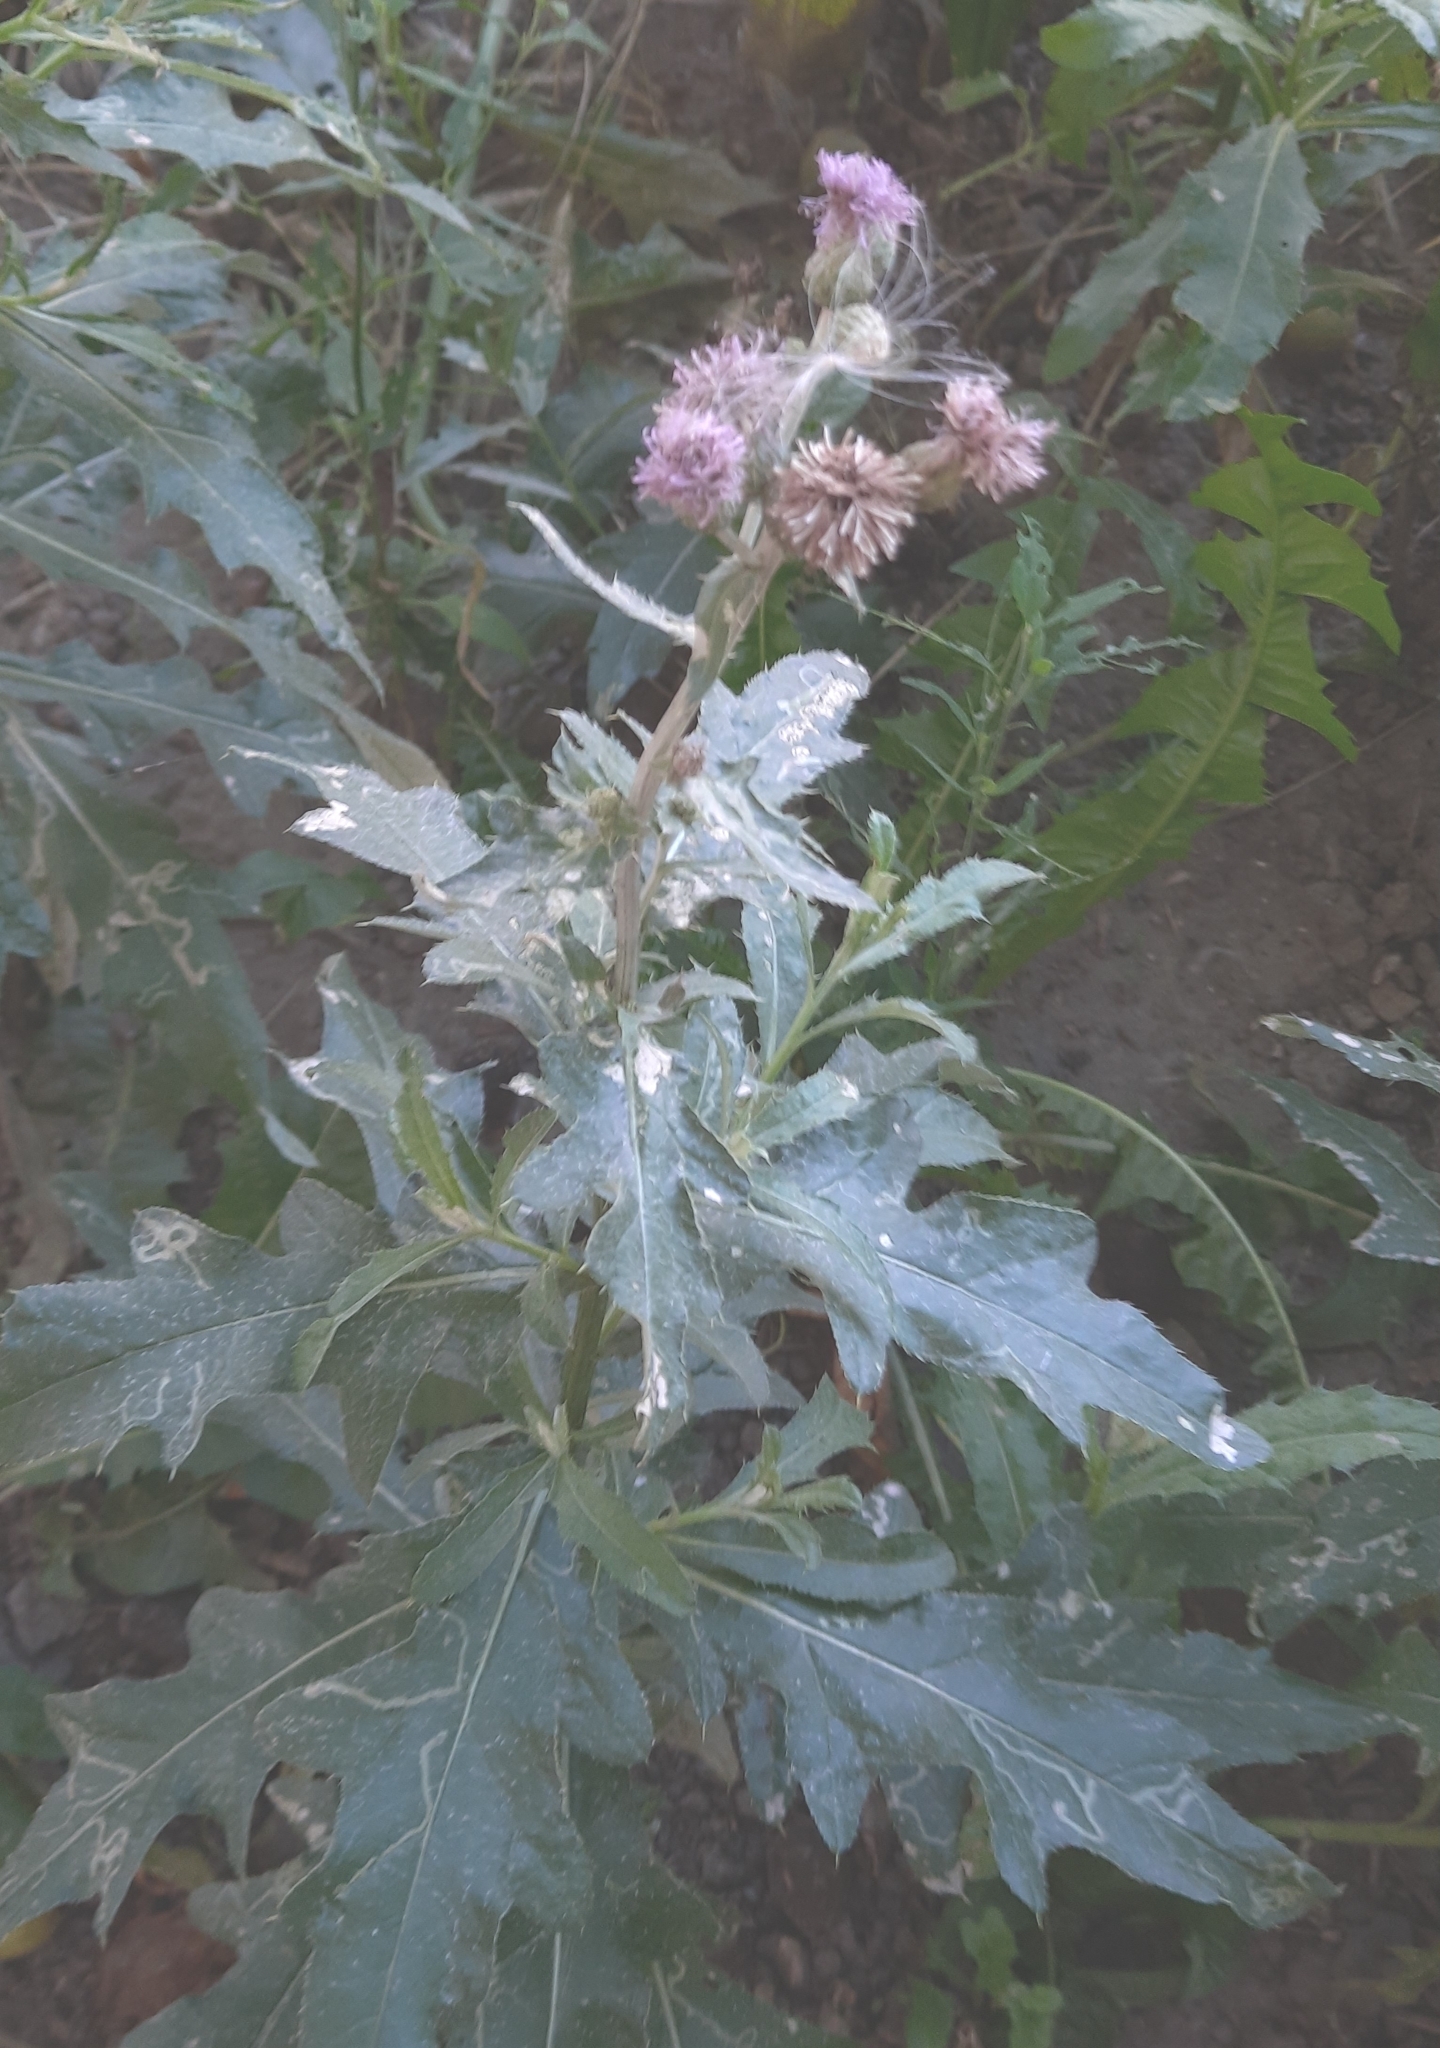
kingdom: Plantae
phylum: Tracheophyta
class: Magnoliopsida
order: Asterales
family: Asteraceae
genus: Cirsium
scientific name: Cirsium arvense
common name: Creeping thistle
